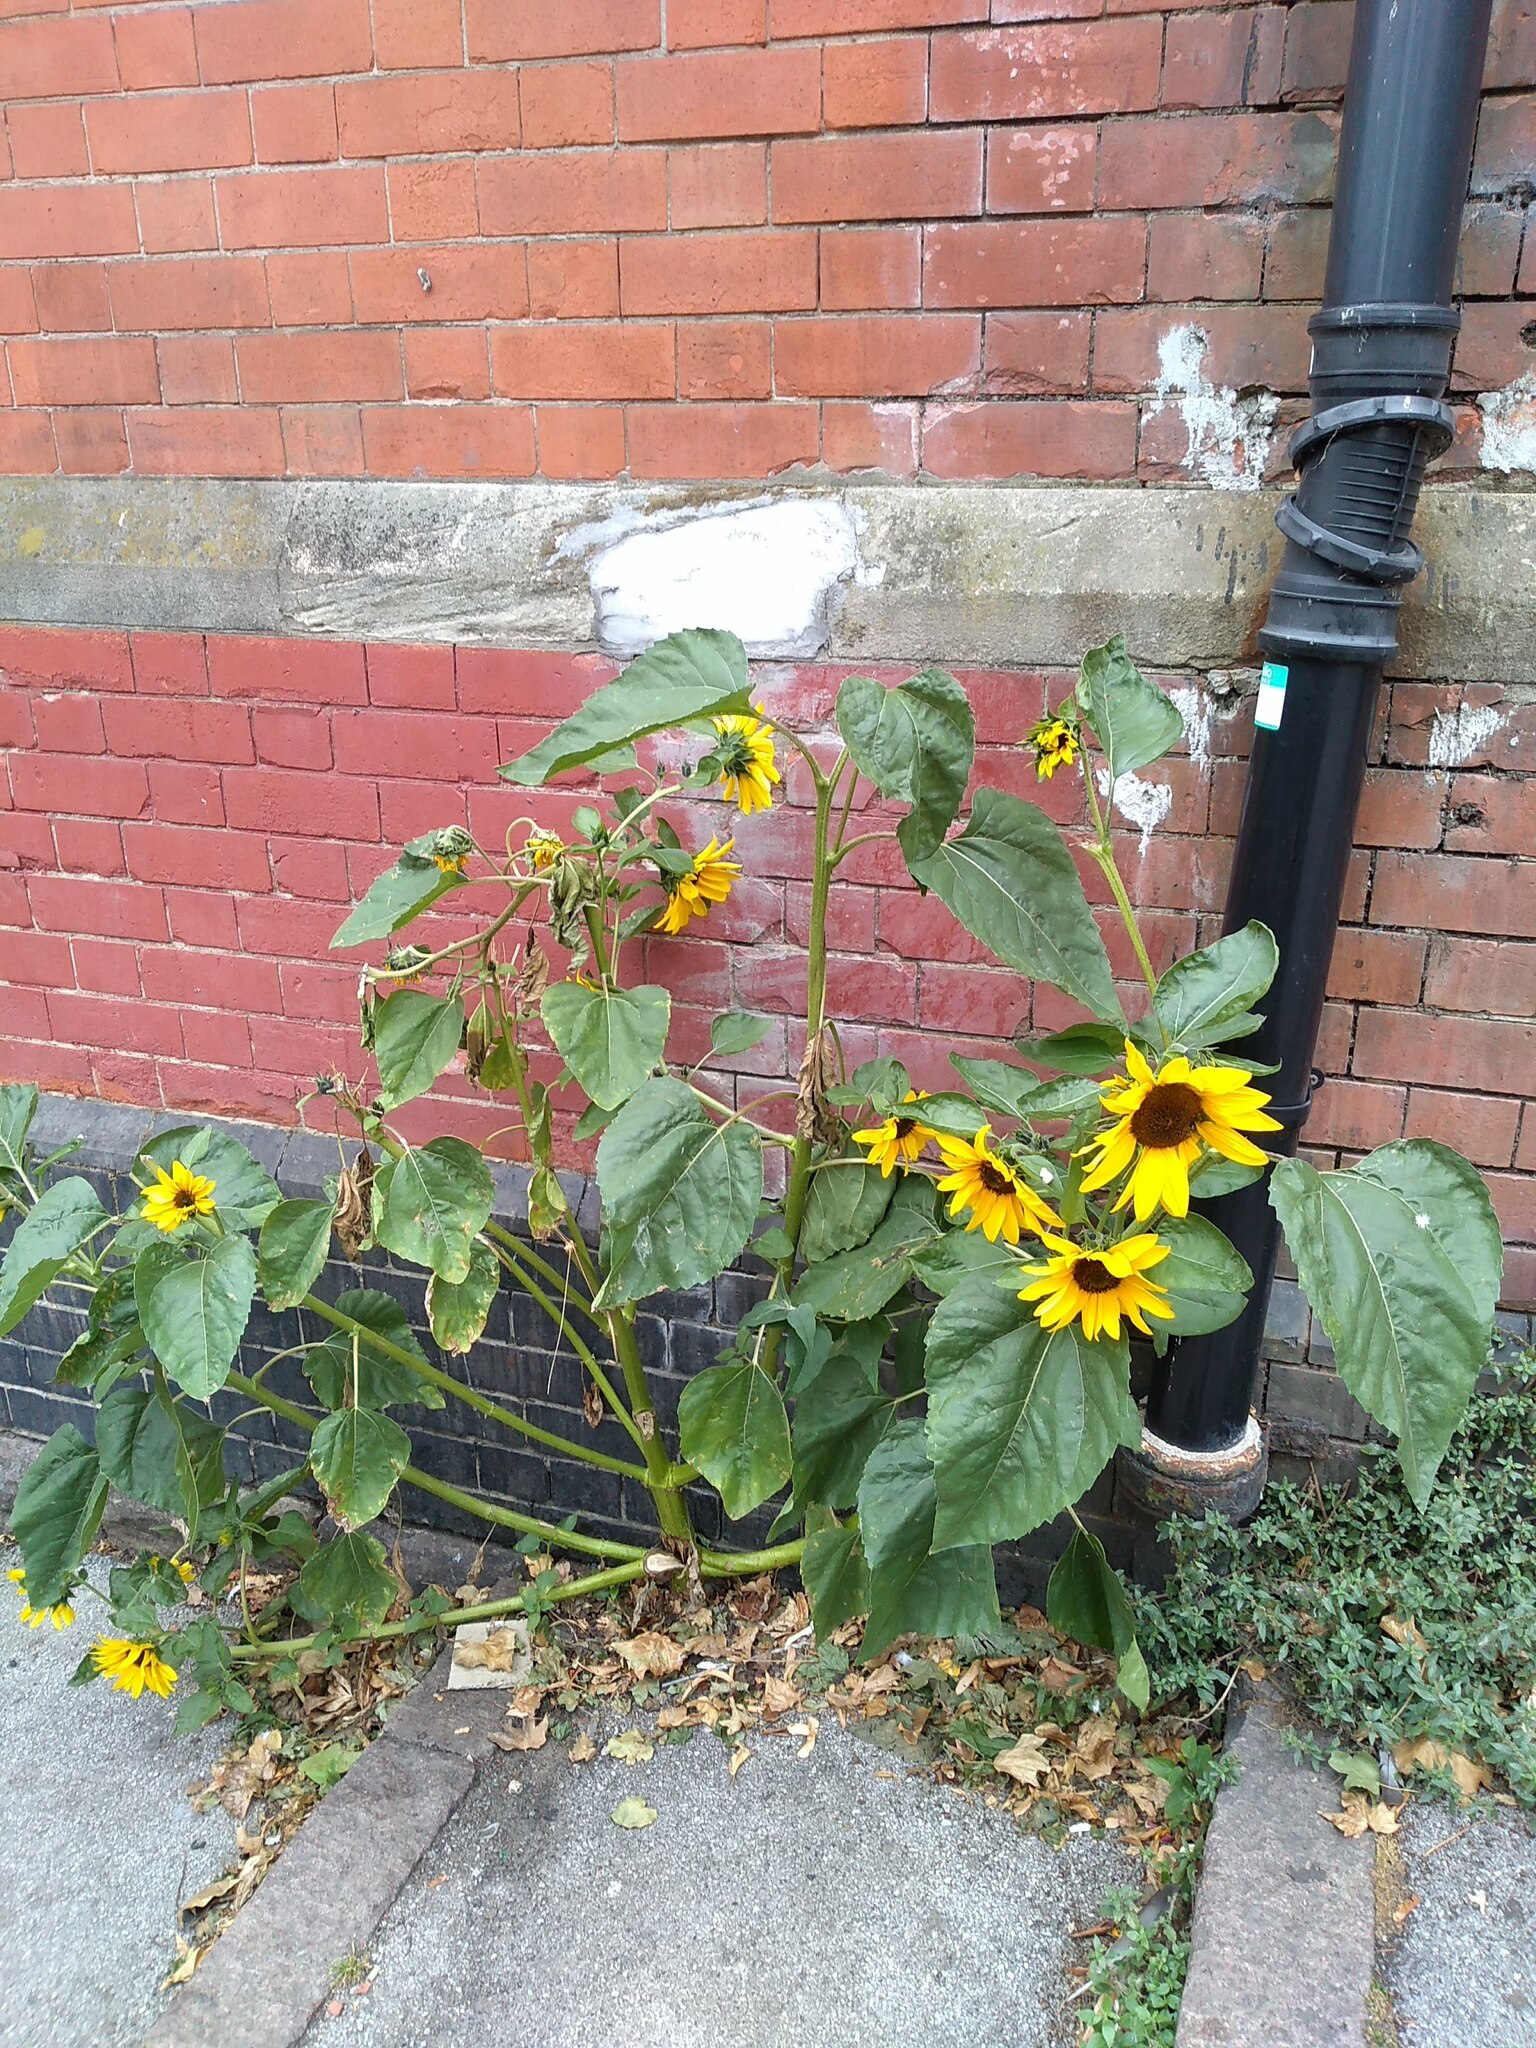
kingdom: Plantae
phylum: Tracheophyta
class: Magnoliopsida
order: Asterales
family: Asteraceae
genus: Helianthus
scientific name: Helianthus annuus
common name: Sunflower
